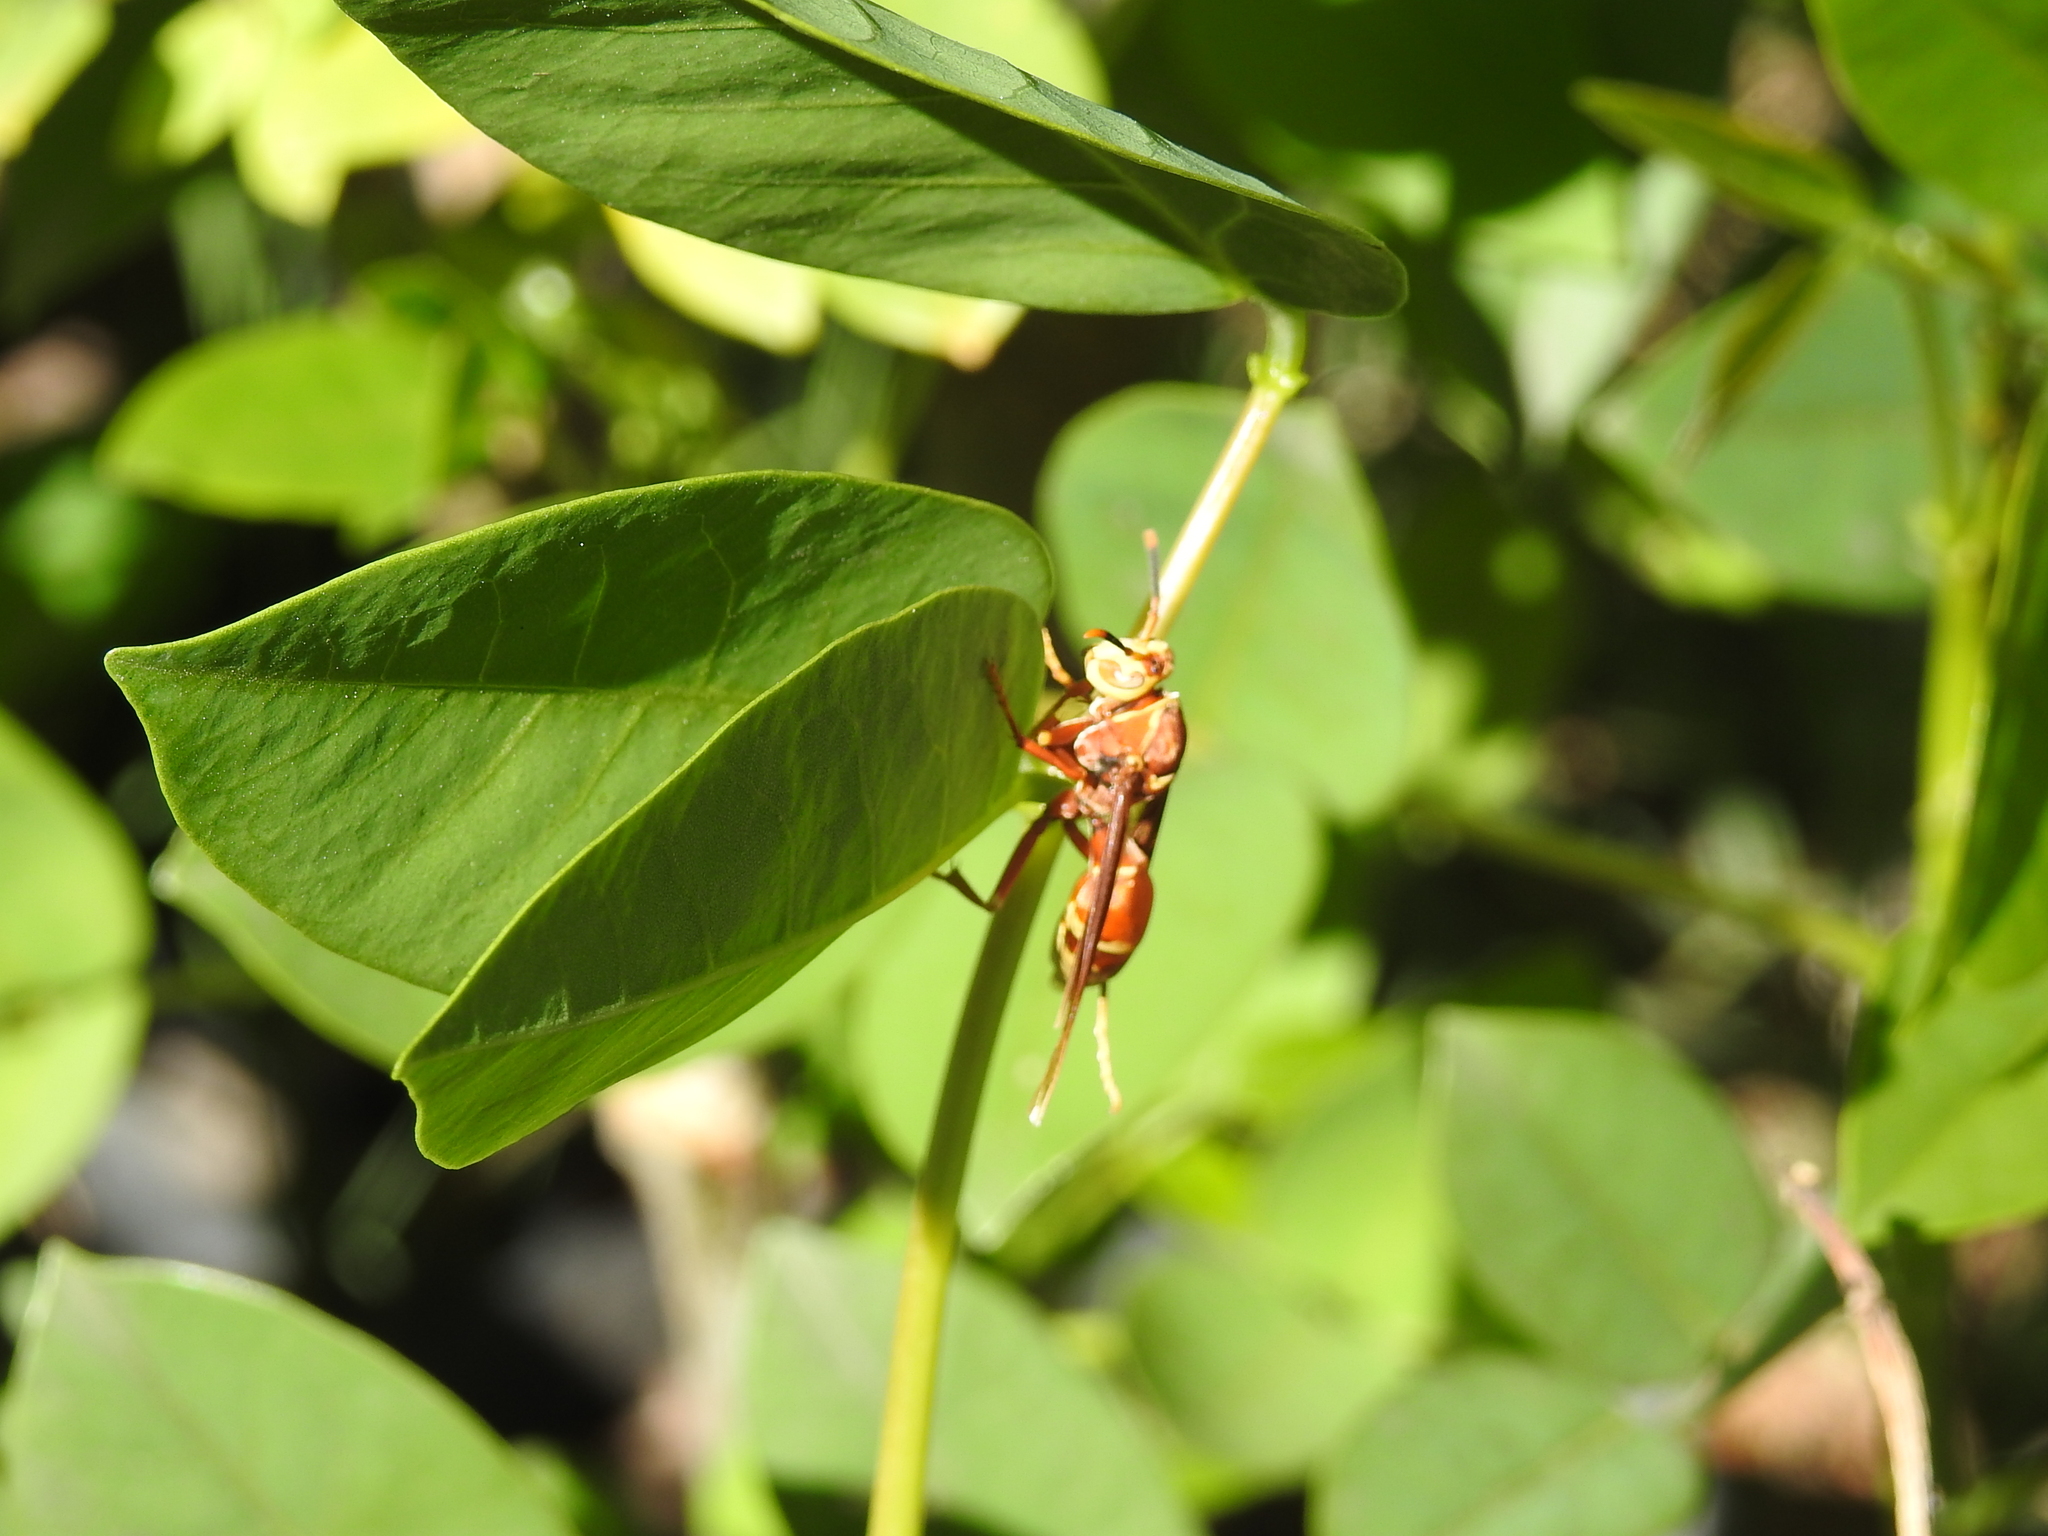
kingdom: Animalia
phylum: Arthropoda
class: Insecta
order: Hymenoptera
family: Eumenidae
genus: Polistes
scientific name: Polistes cavapyta
